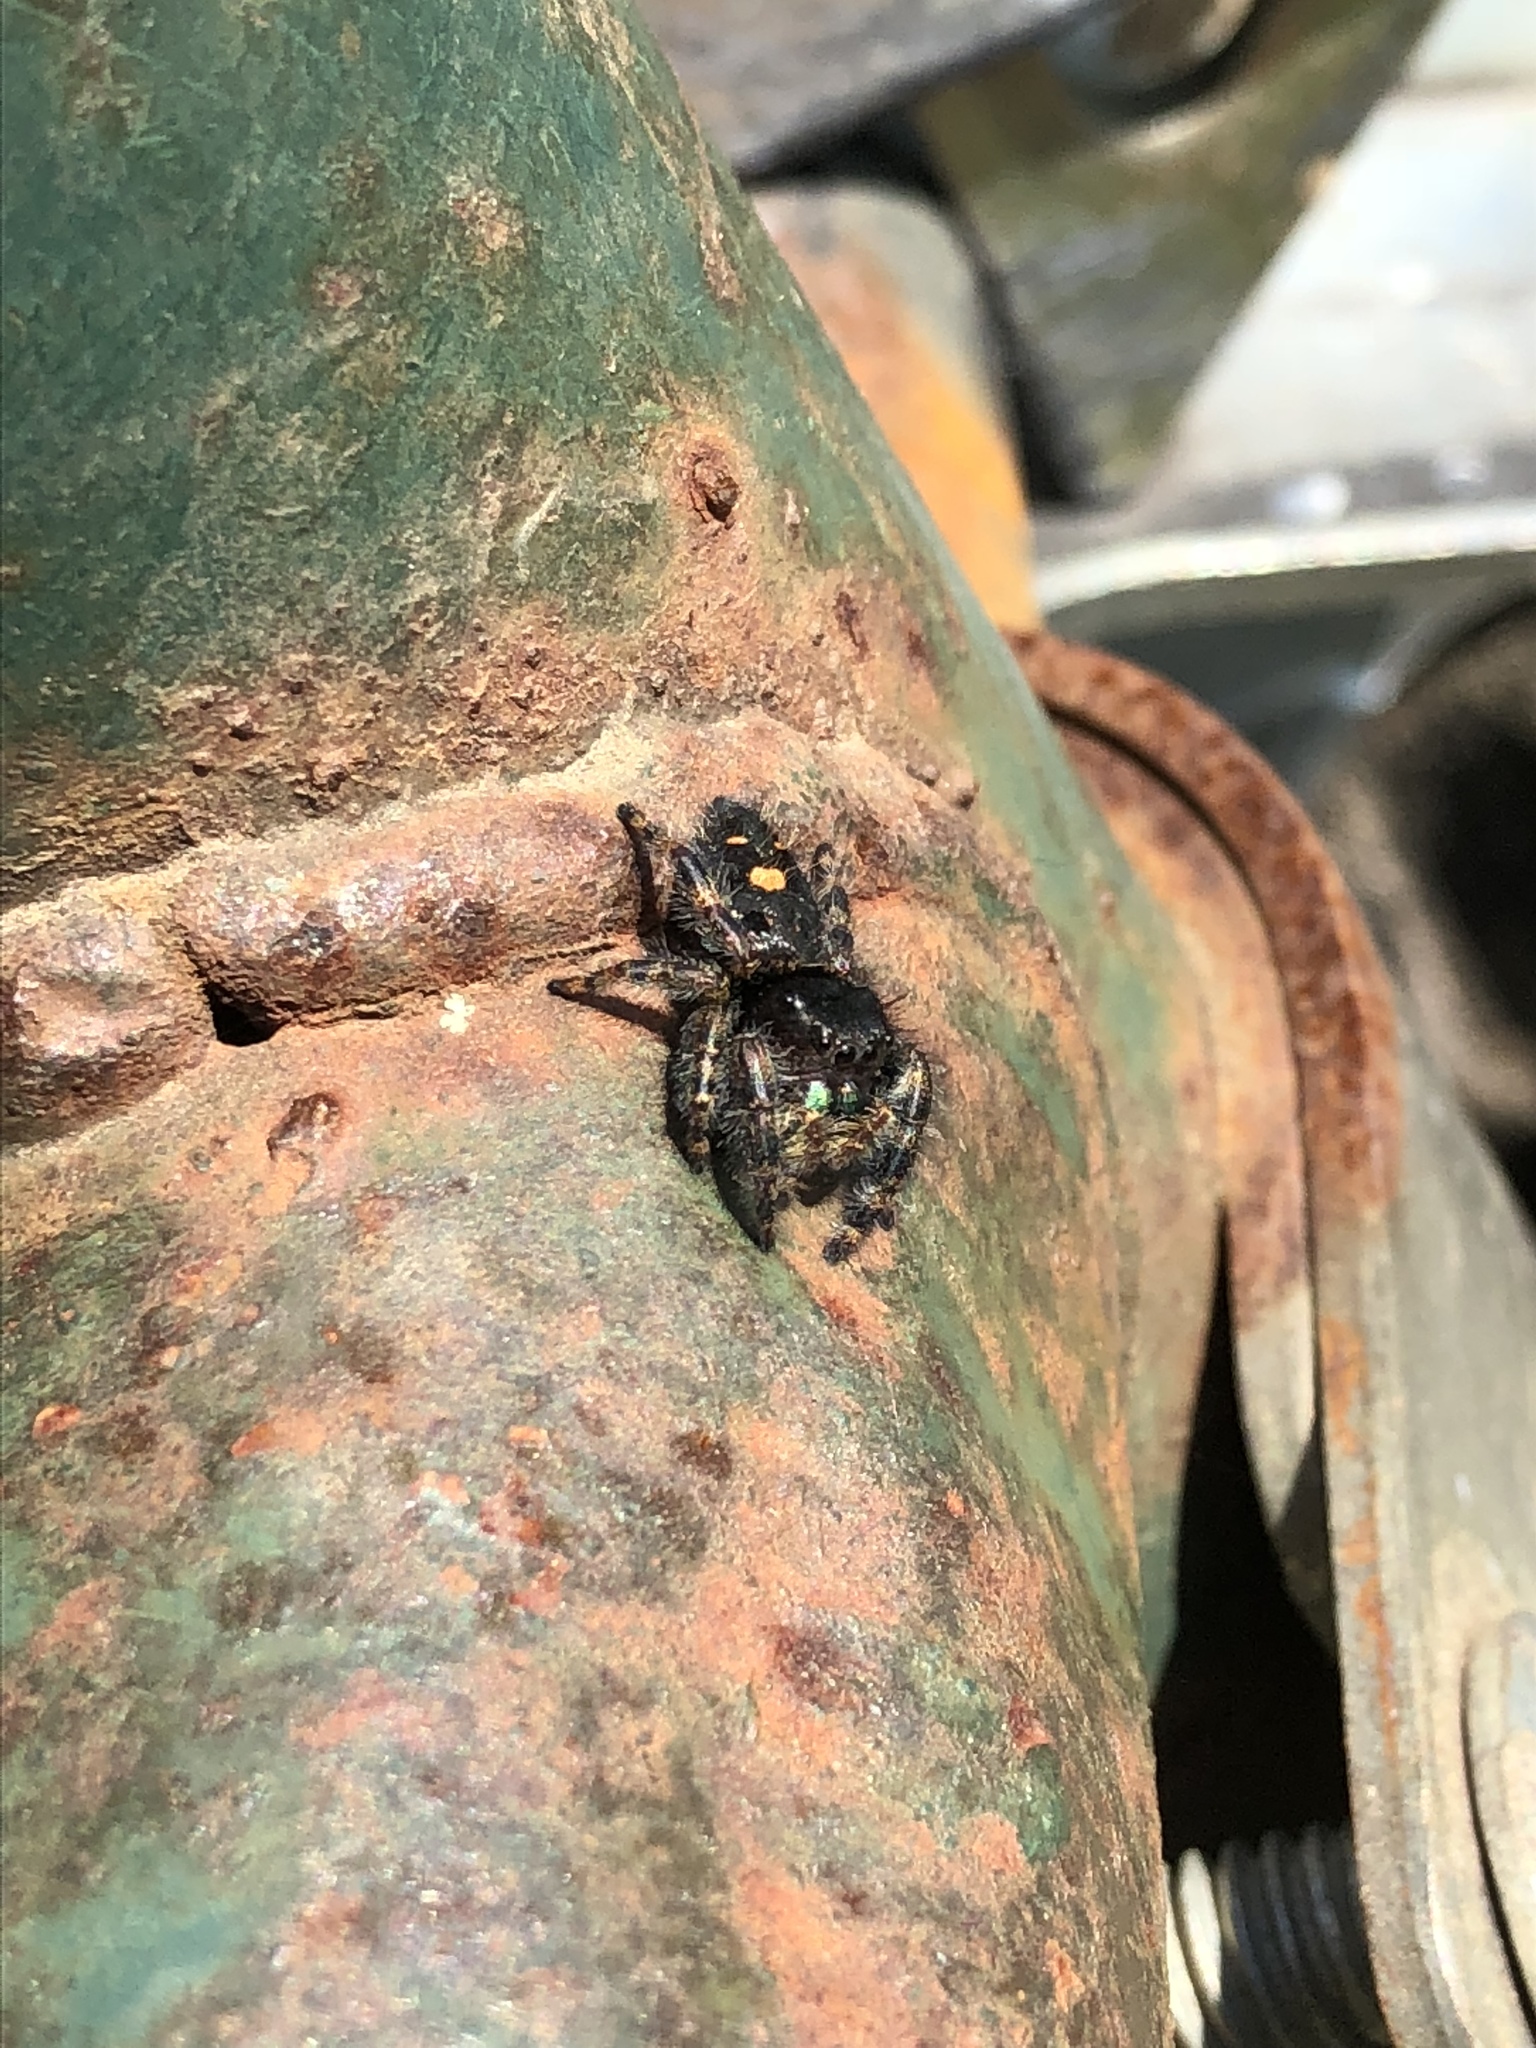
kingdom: Animalia
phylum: Arthropoda
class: Arachnida
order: Araneae
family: Salticidae
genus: Phidippus
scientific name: Phidippus audax
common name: Bold jumper
